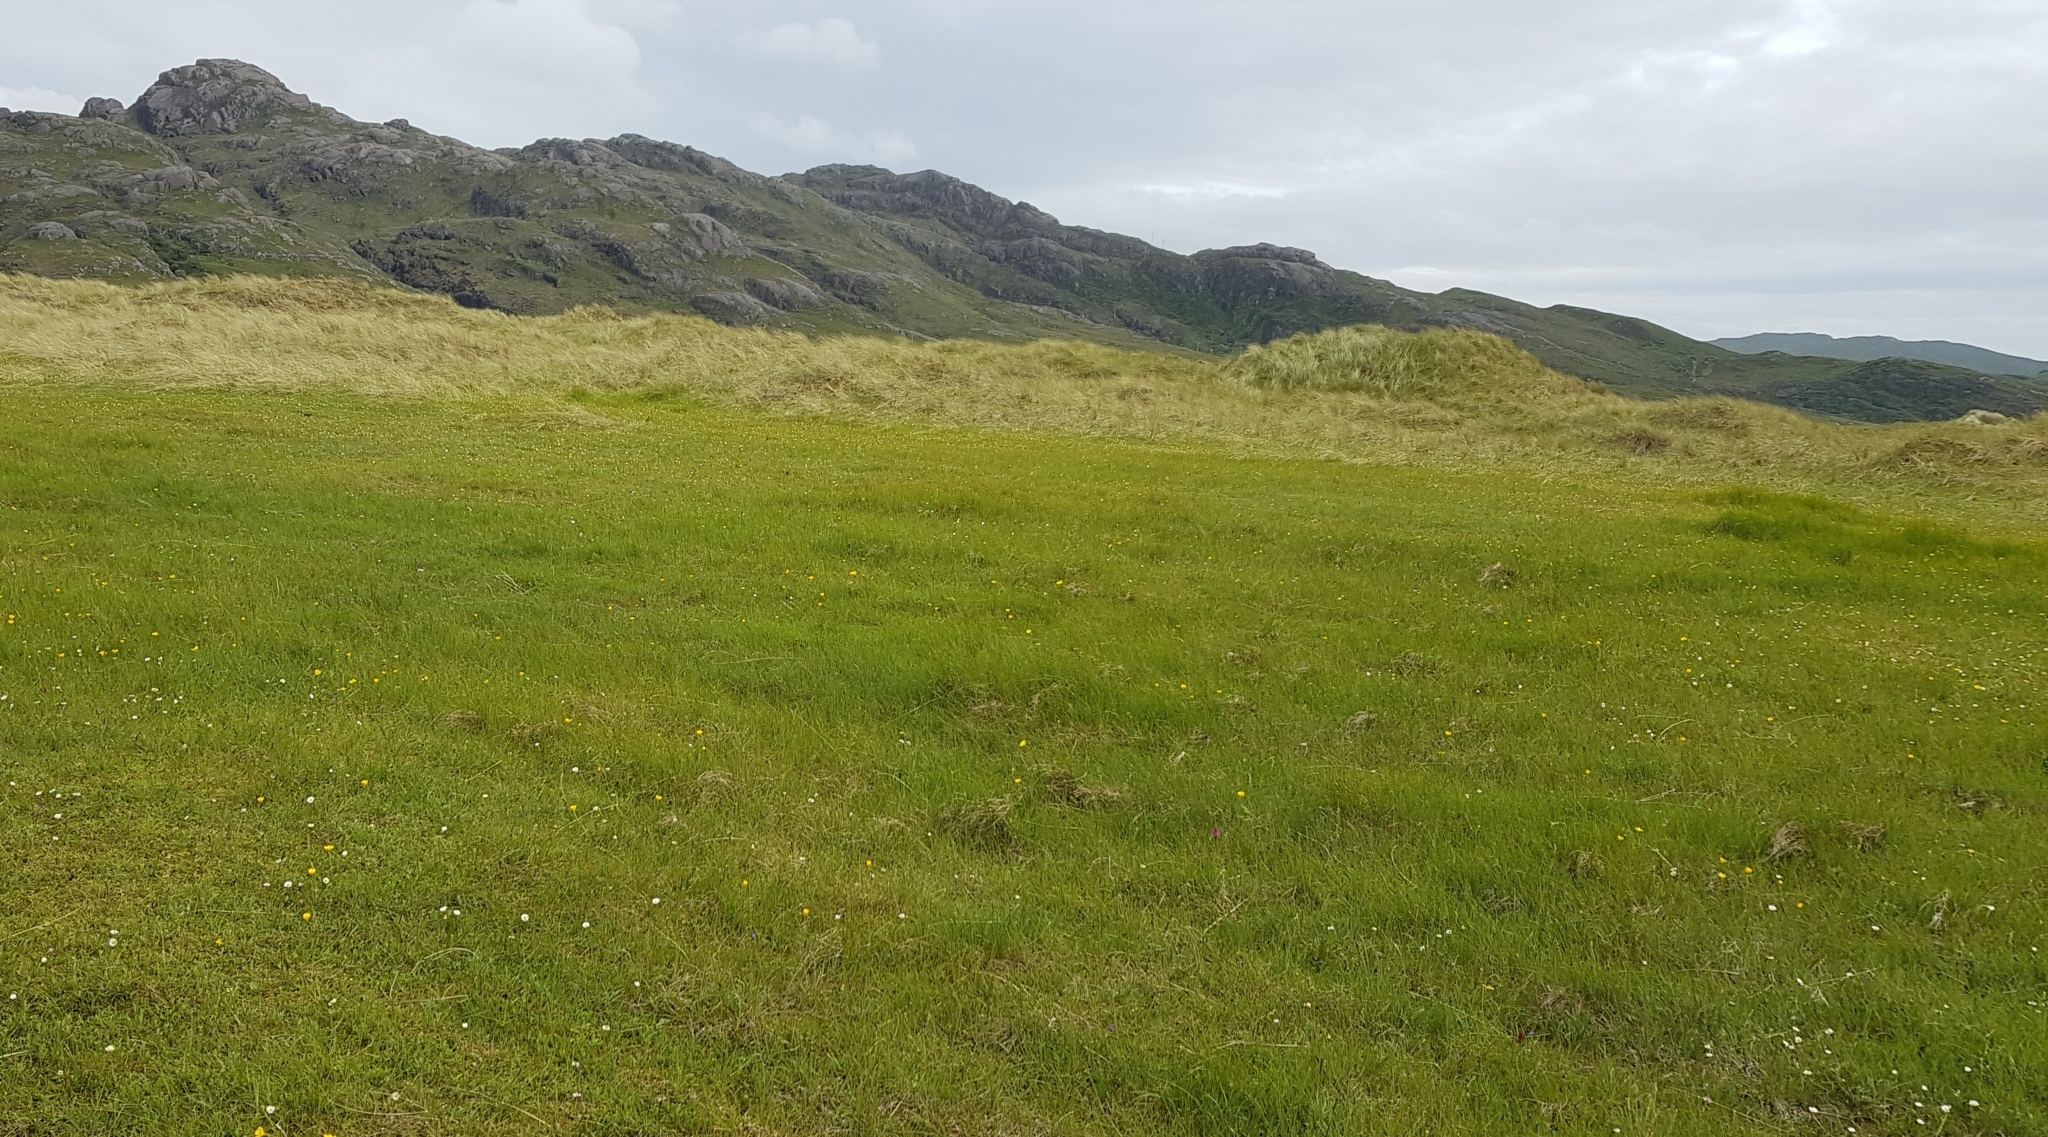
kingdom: Plantae
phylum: Tracheophyta
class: Liliopsida
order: Asparagales
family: Orchidaceae
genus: Dactylorhiza
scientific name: Dactylorhiza incarnata
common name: Early marsh-orchid
